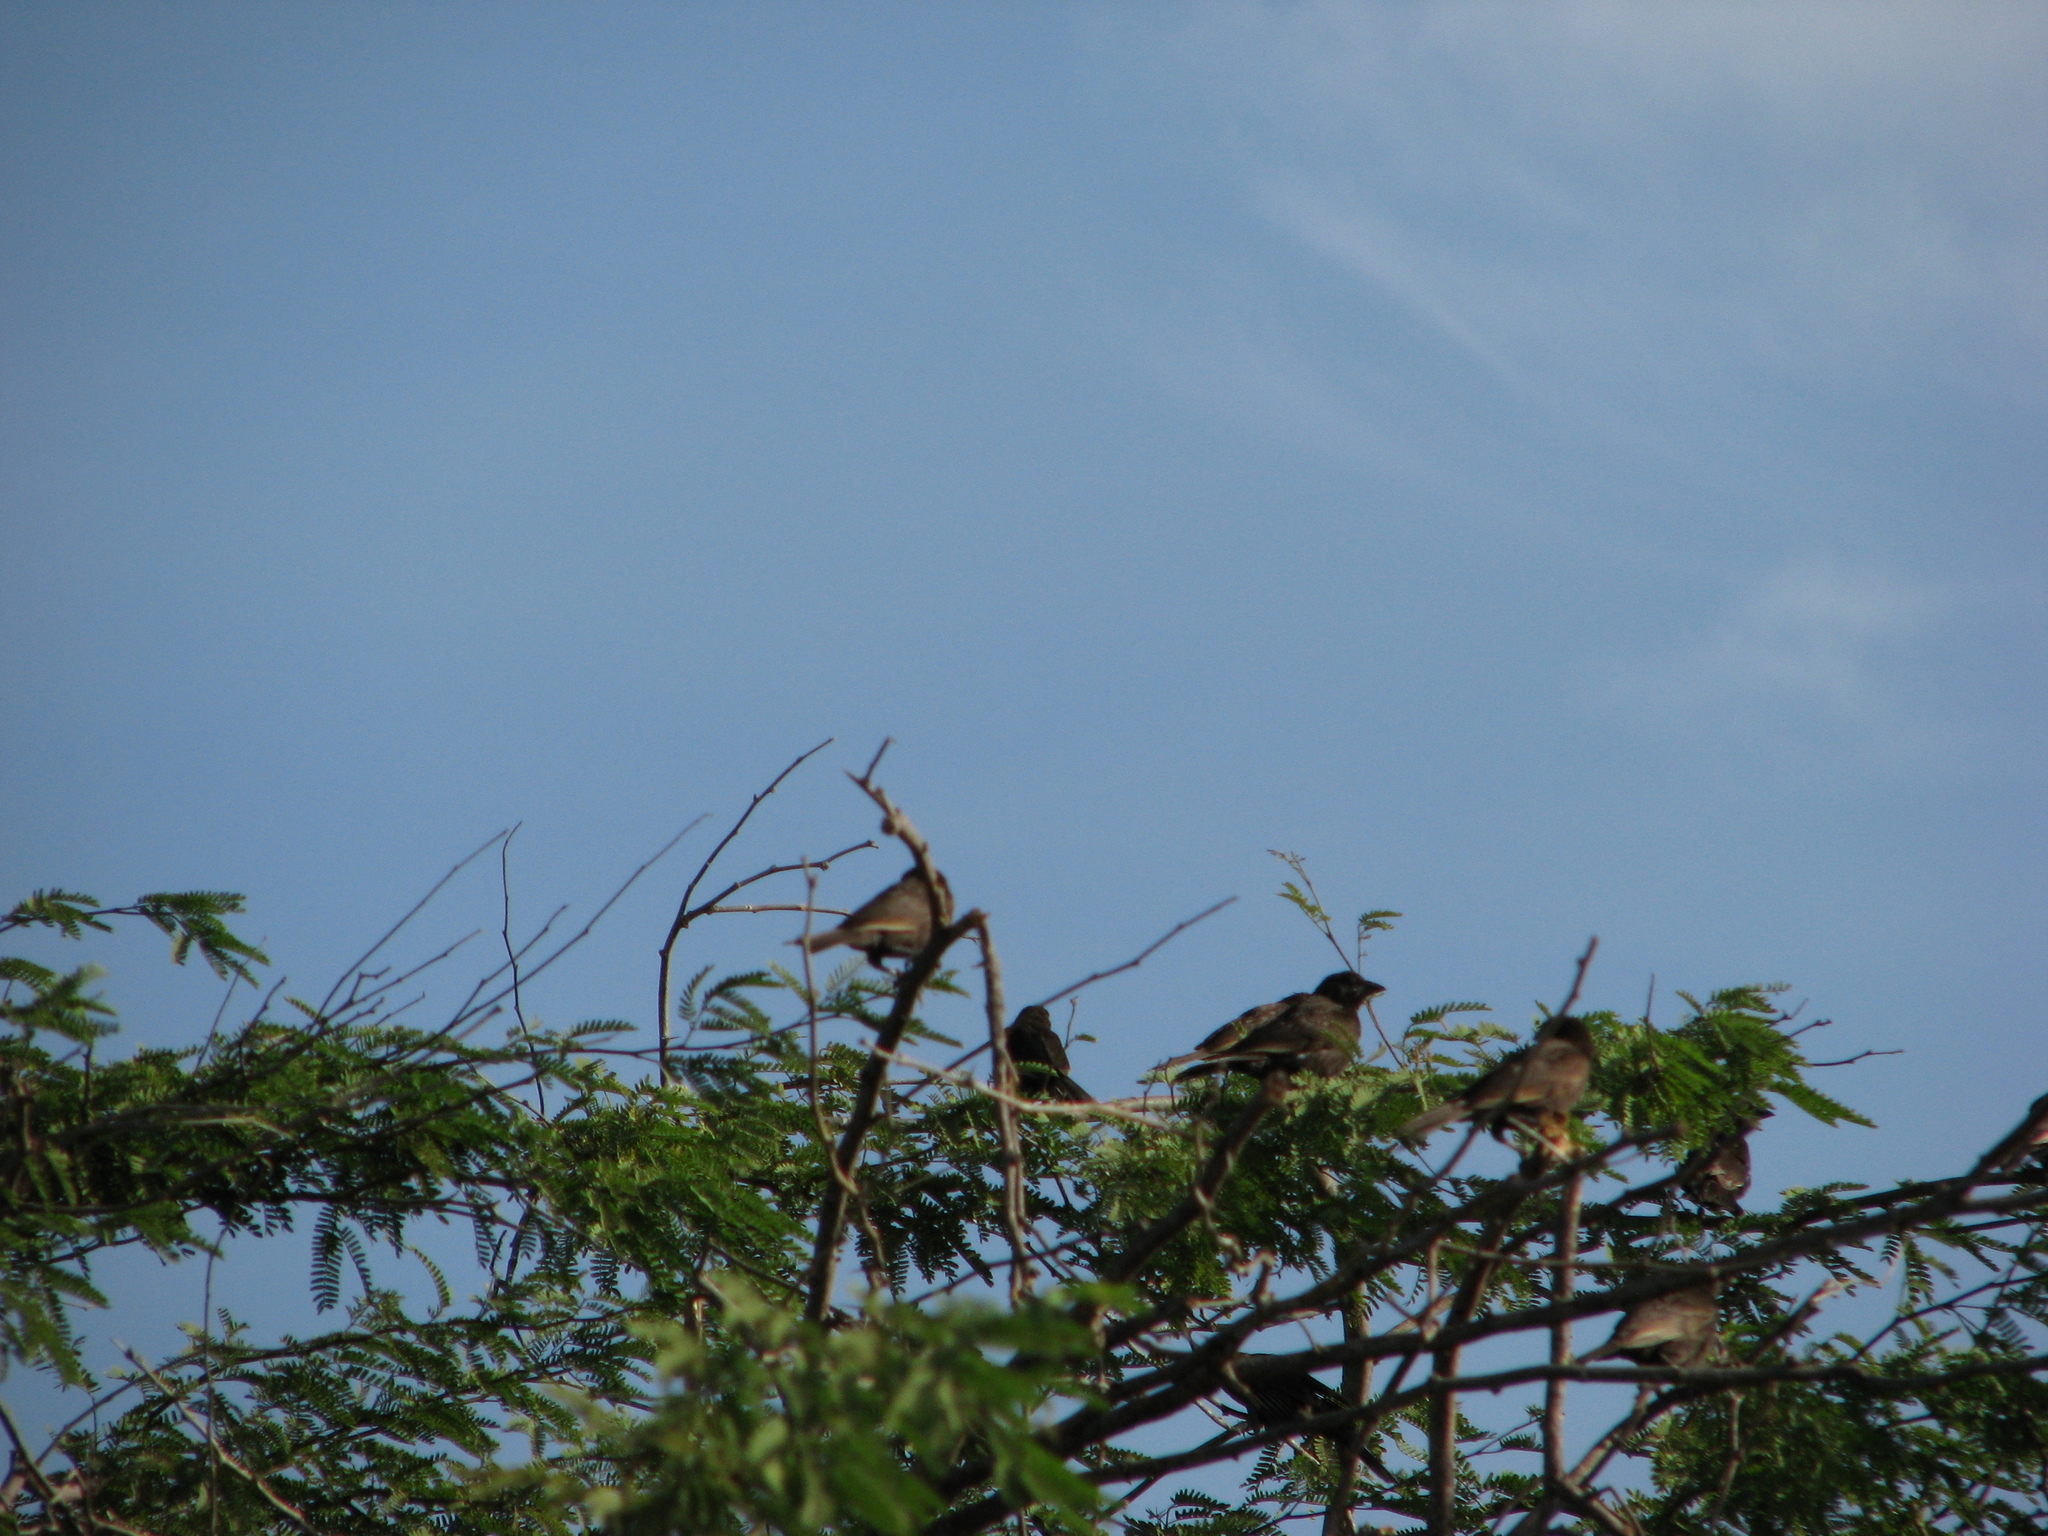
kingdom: Animalia
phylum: Chordata
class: Aves
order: Passeriformes
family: Ploceidae
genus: Bubalornis
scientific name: Bubalornis albirostris
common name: White-billed buffalo weaver
